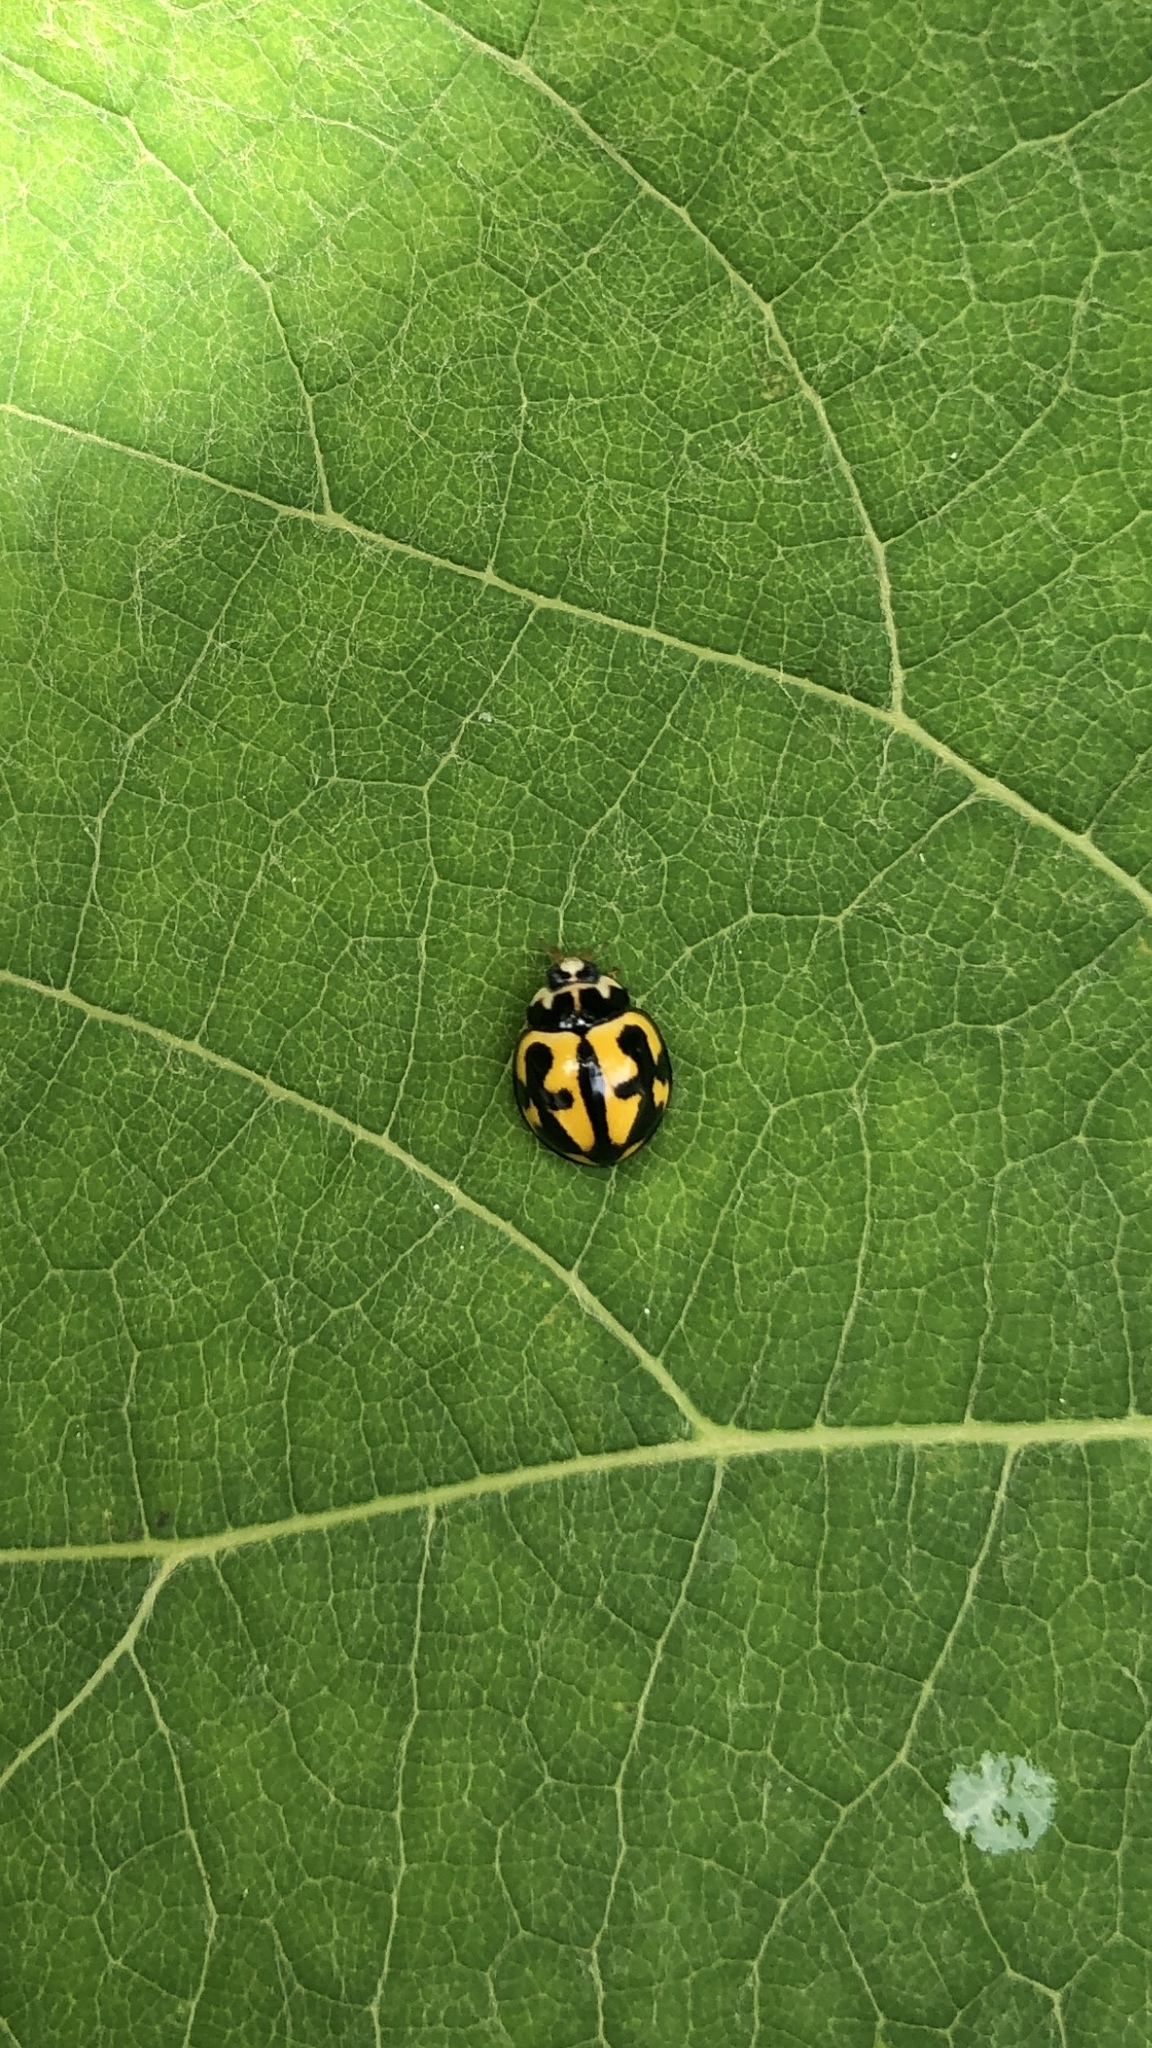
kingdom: Animalia
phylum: Arthropoda
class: Insecta
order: Coleoptera
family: Coccinellidae
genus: Coelophora
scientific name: Coelophora inaequalis
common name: Common australian lady beetle
